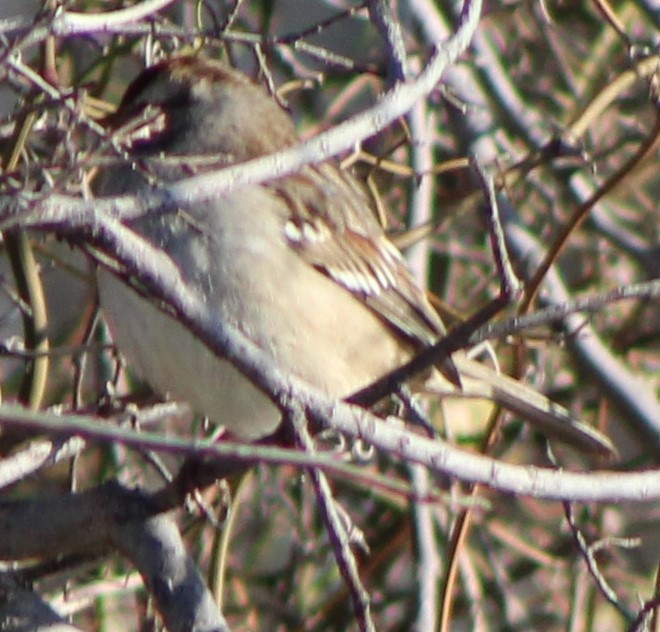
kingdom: Animalia
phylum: Chordata
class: Aves
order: Passeriformes
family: Passerellidae
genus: Zonotrichia
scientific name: Zonotrichia leucophrys
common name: White-crowned sparrow
